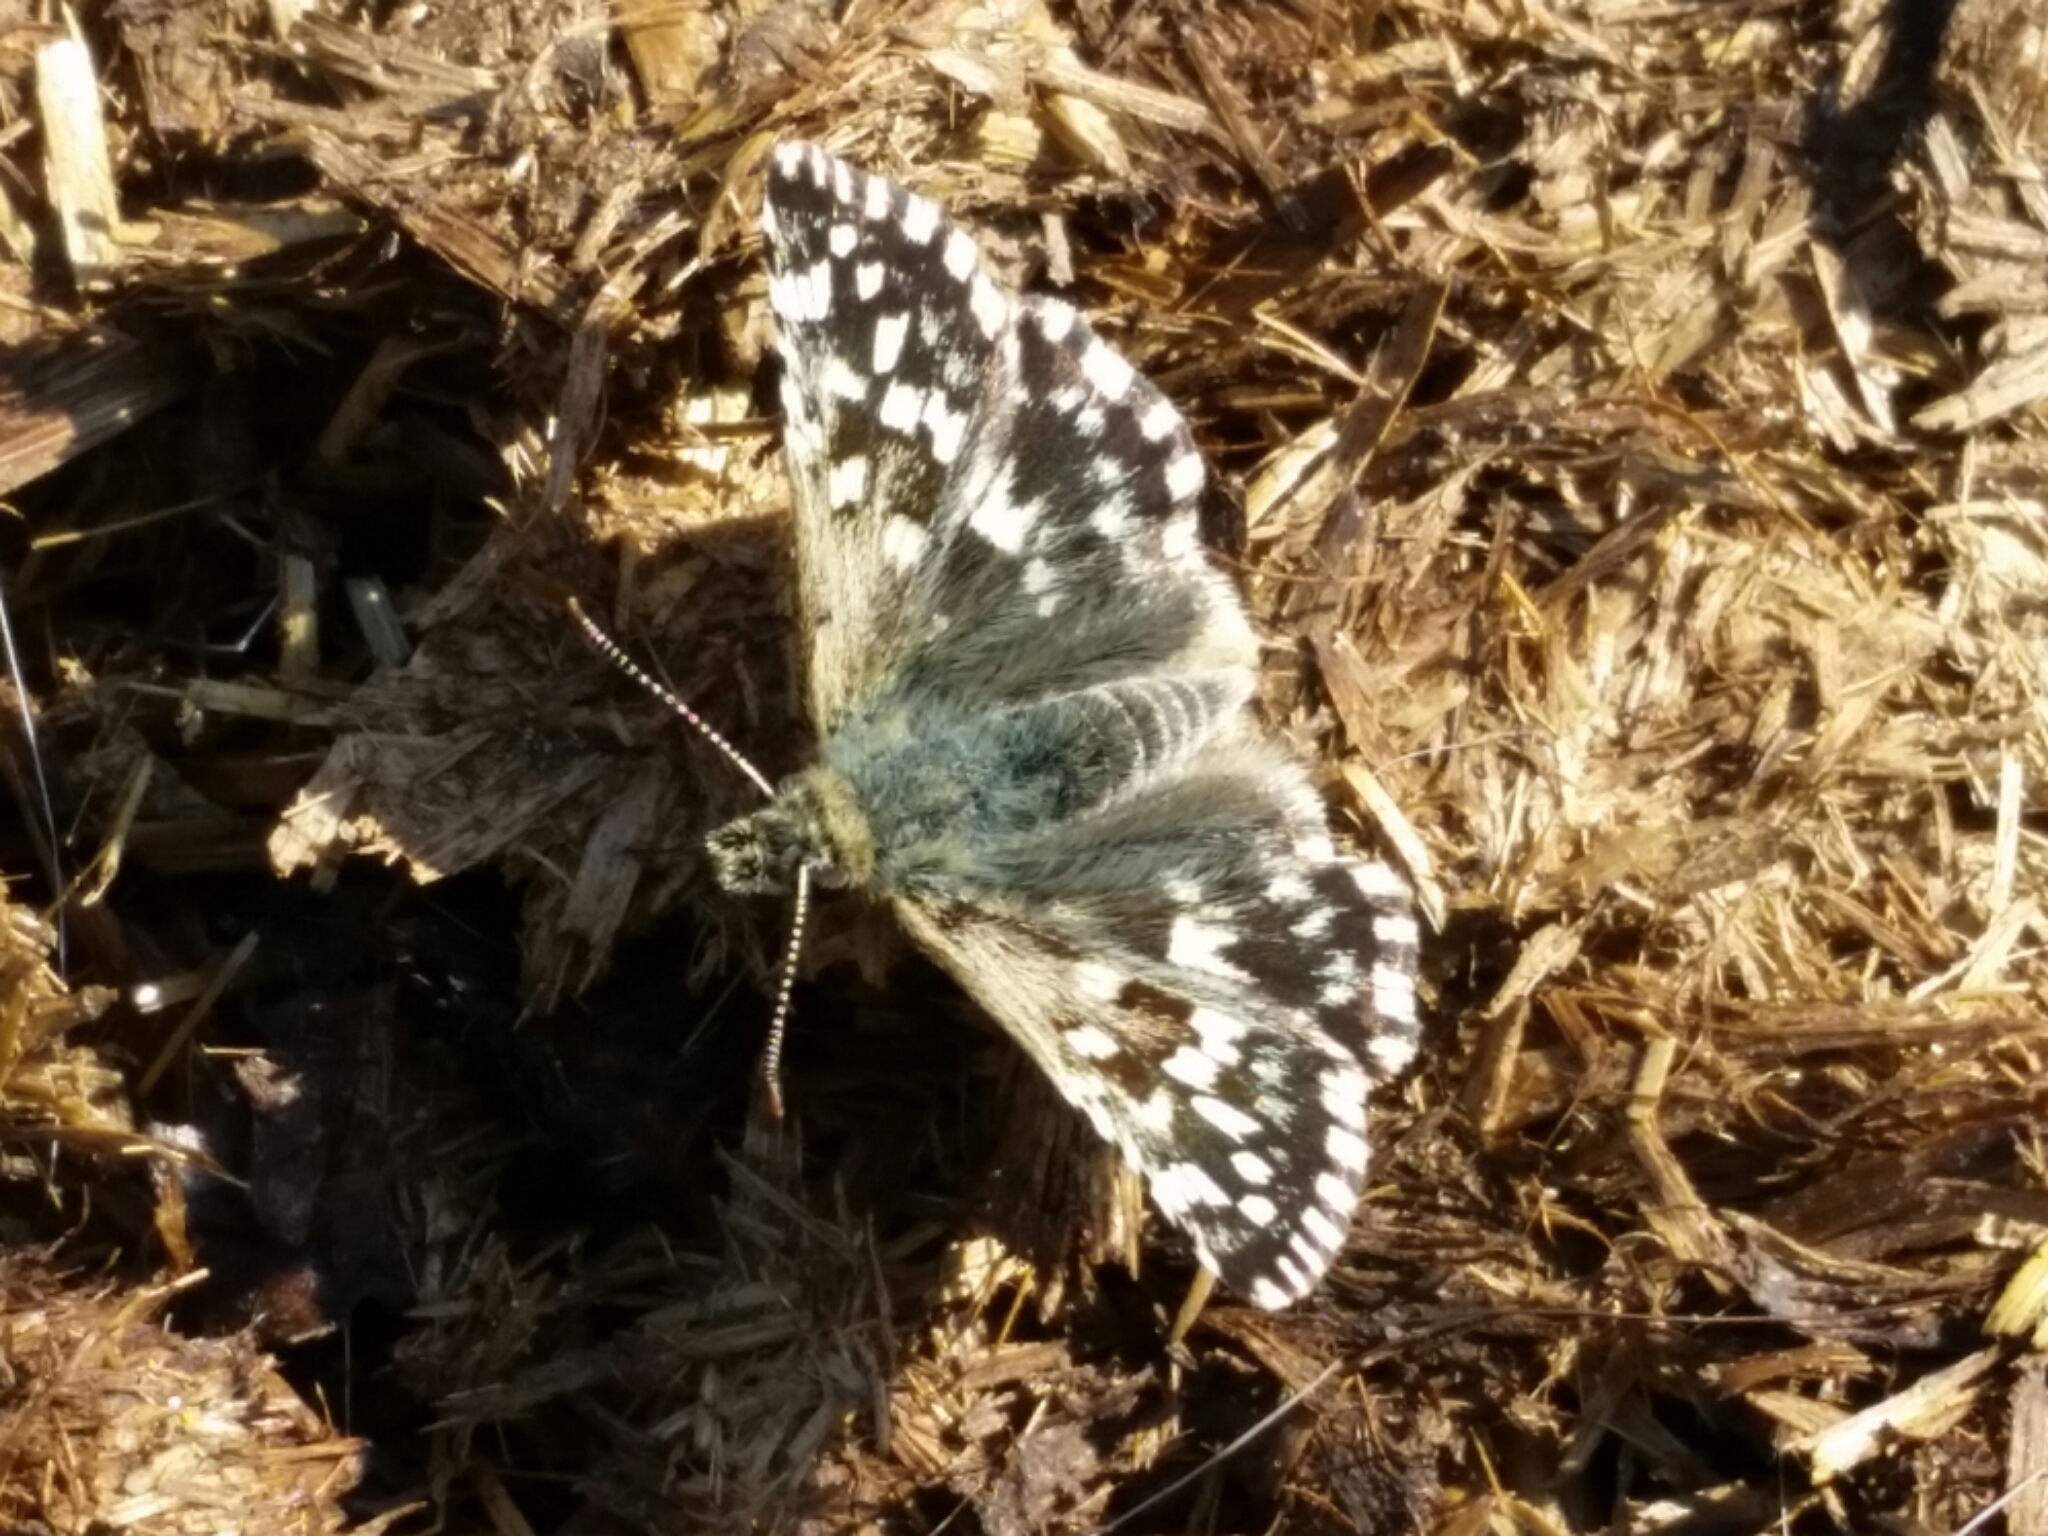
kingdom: Animalia
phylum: Arthropoda
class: Insecta
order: Lepidoptera
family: Hesperiidae
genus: Pyrgus
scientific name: Pyrgus malvoides
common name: Southern grizzled skipper
